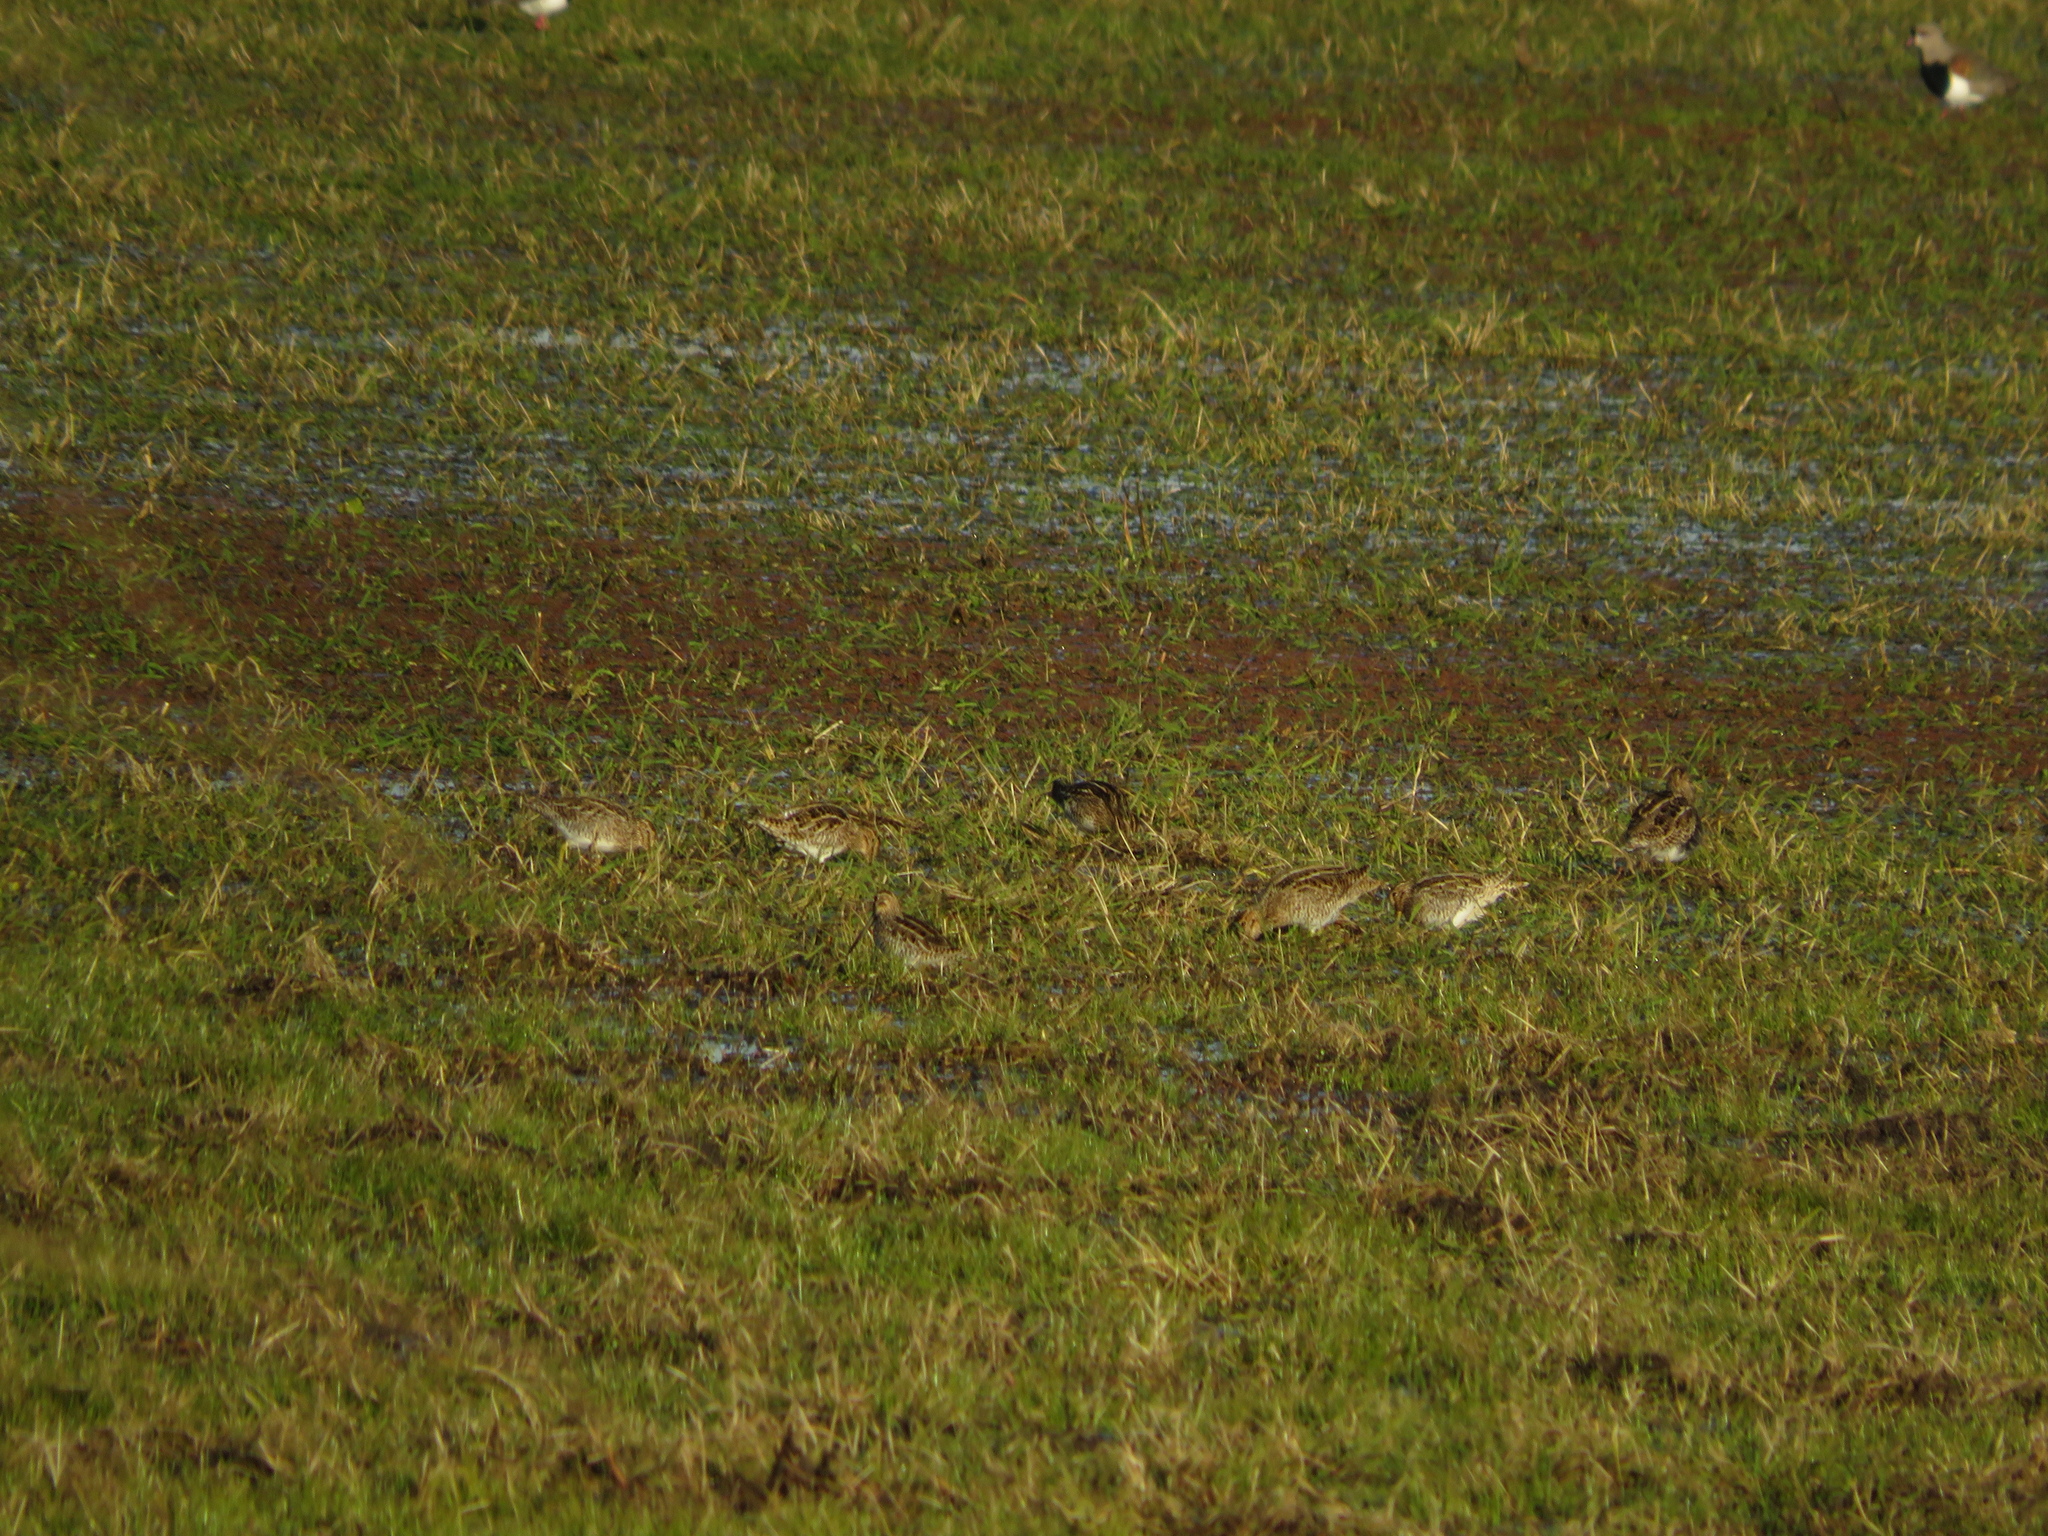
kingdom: Animalia
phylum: Chordata
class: Aves
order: Charadriiformes
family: Scolopacidae
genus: Gallinago
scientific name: Gallinago paraguaiae
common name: South american snipe
